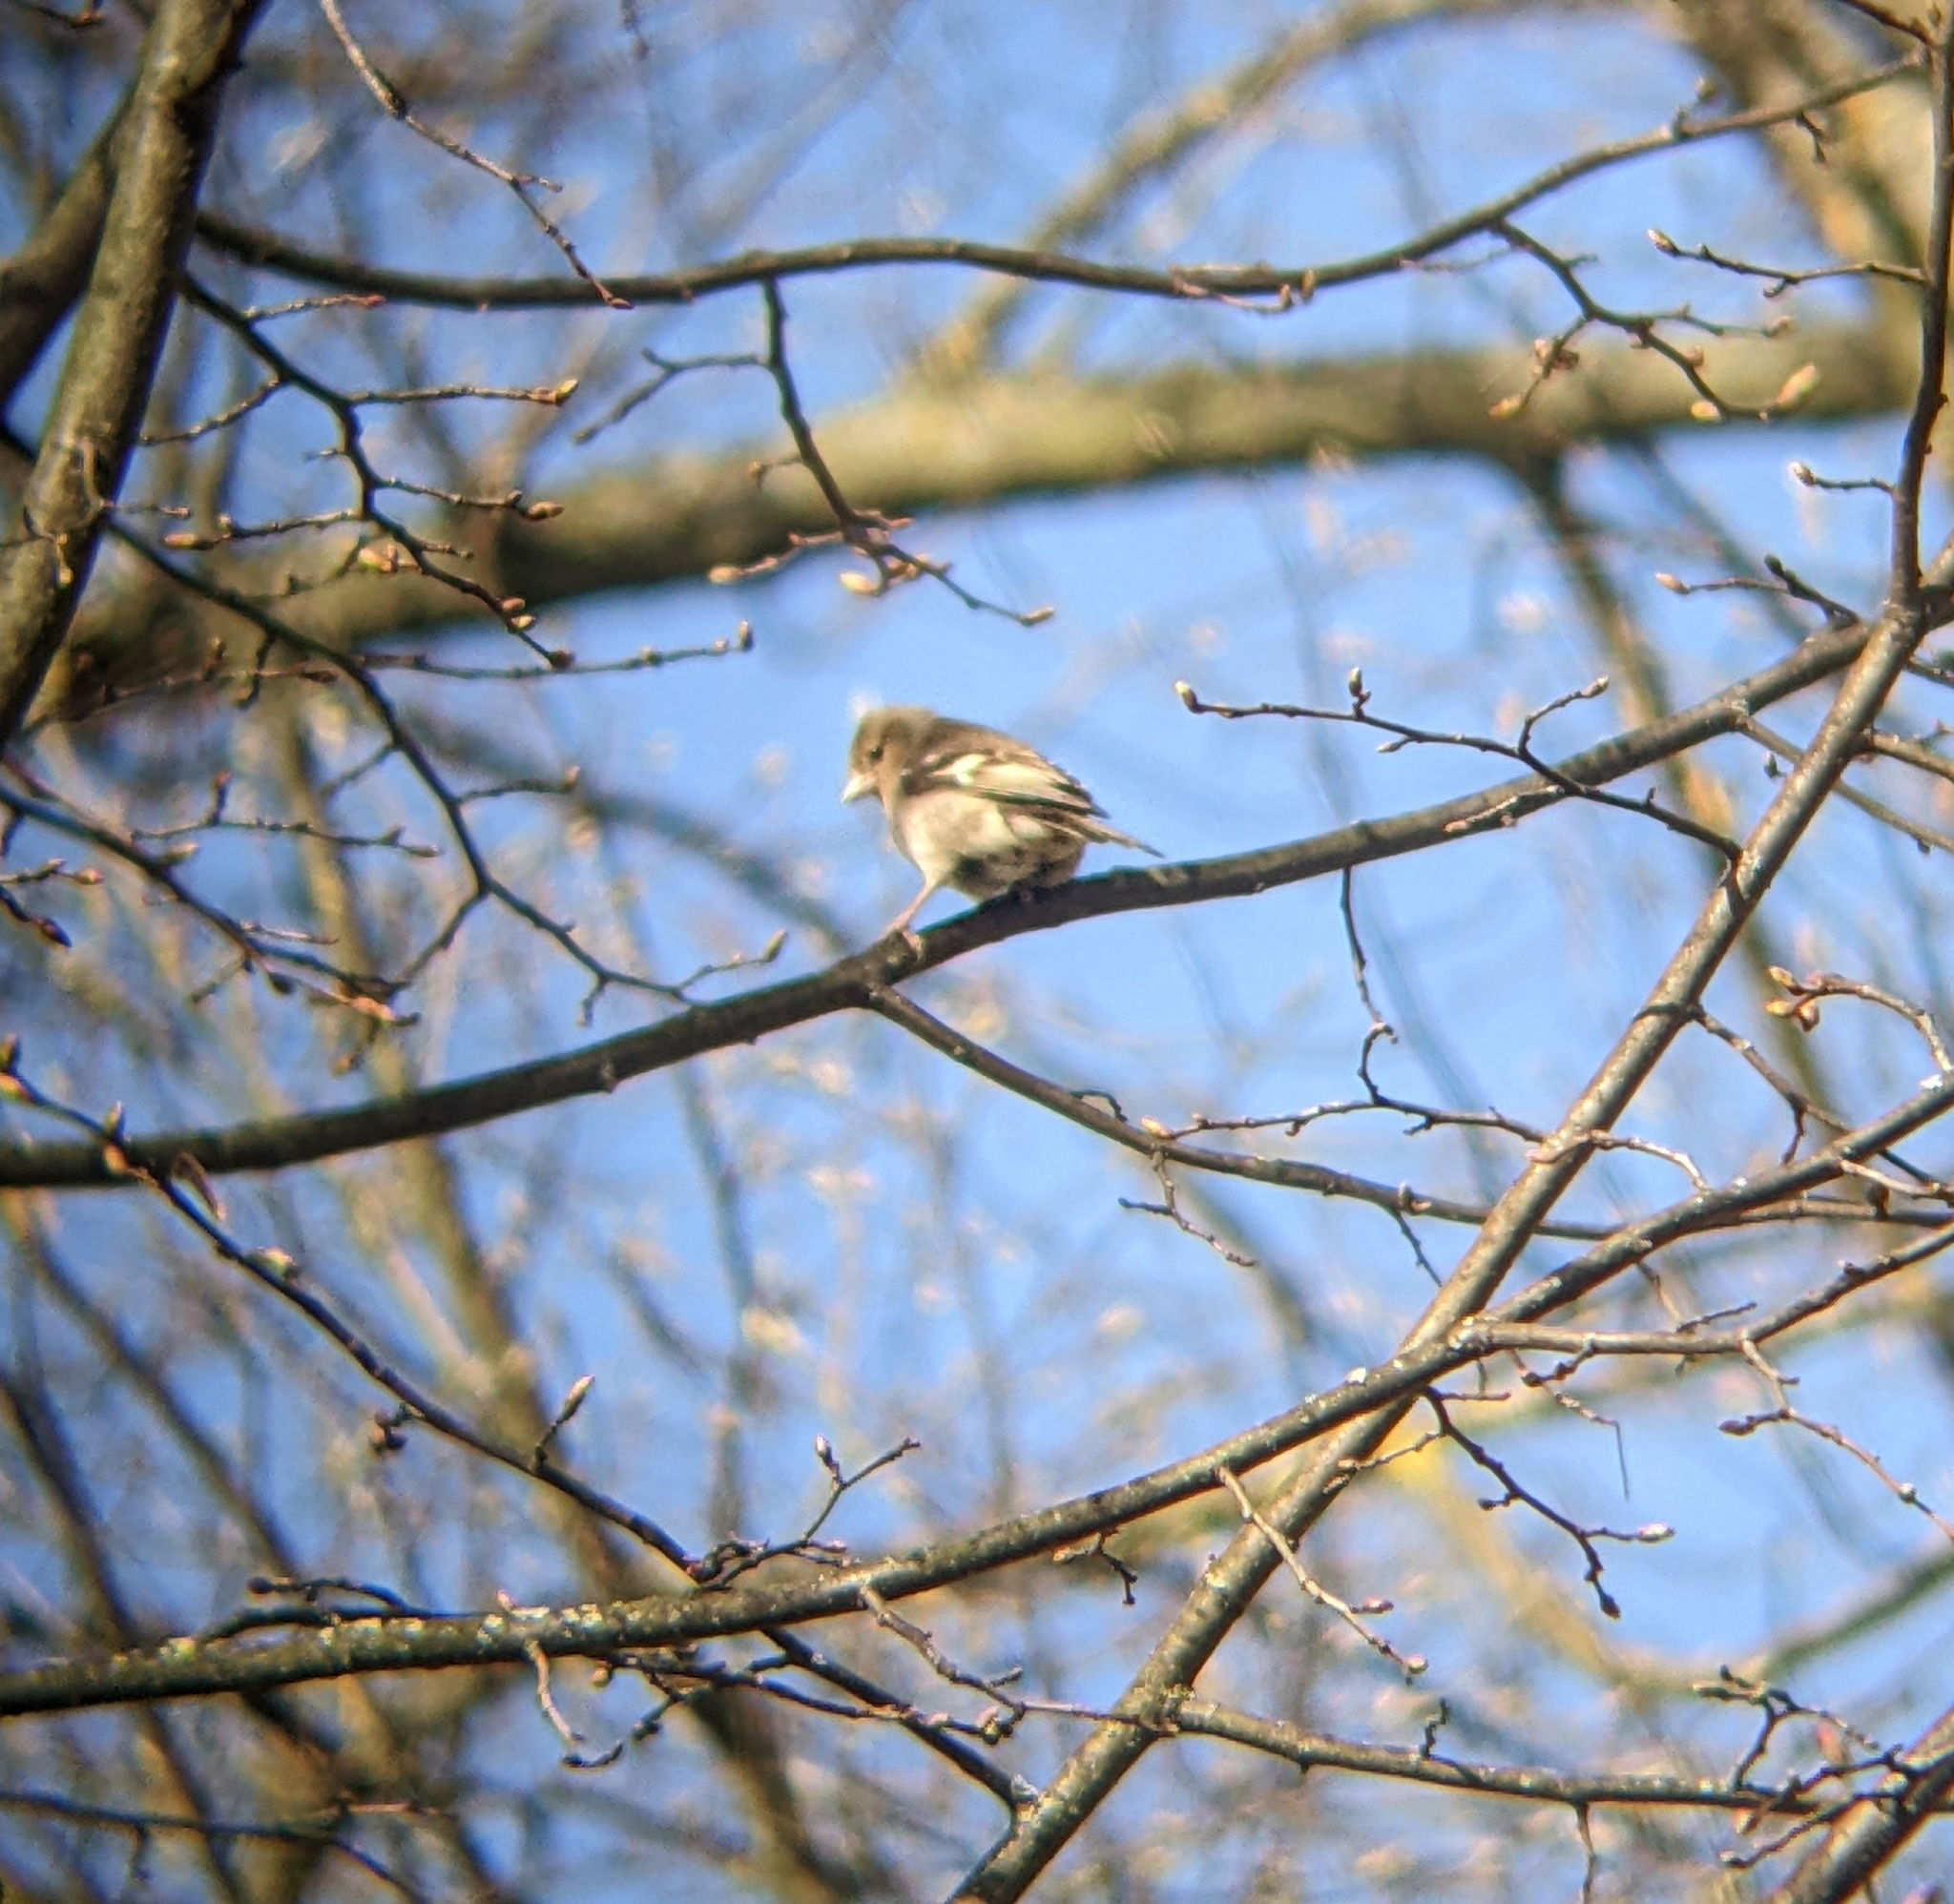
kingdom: Animalia
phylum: Chordata
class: Aves
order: Passeriformes
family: Fringillidae
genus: Fringilla
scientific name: Fringilla coelebs
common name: Common chaffinch
